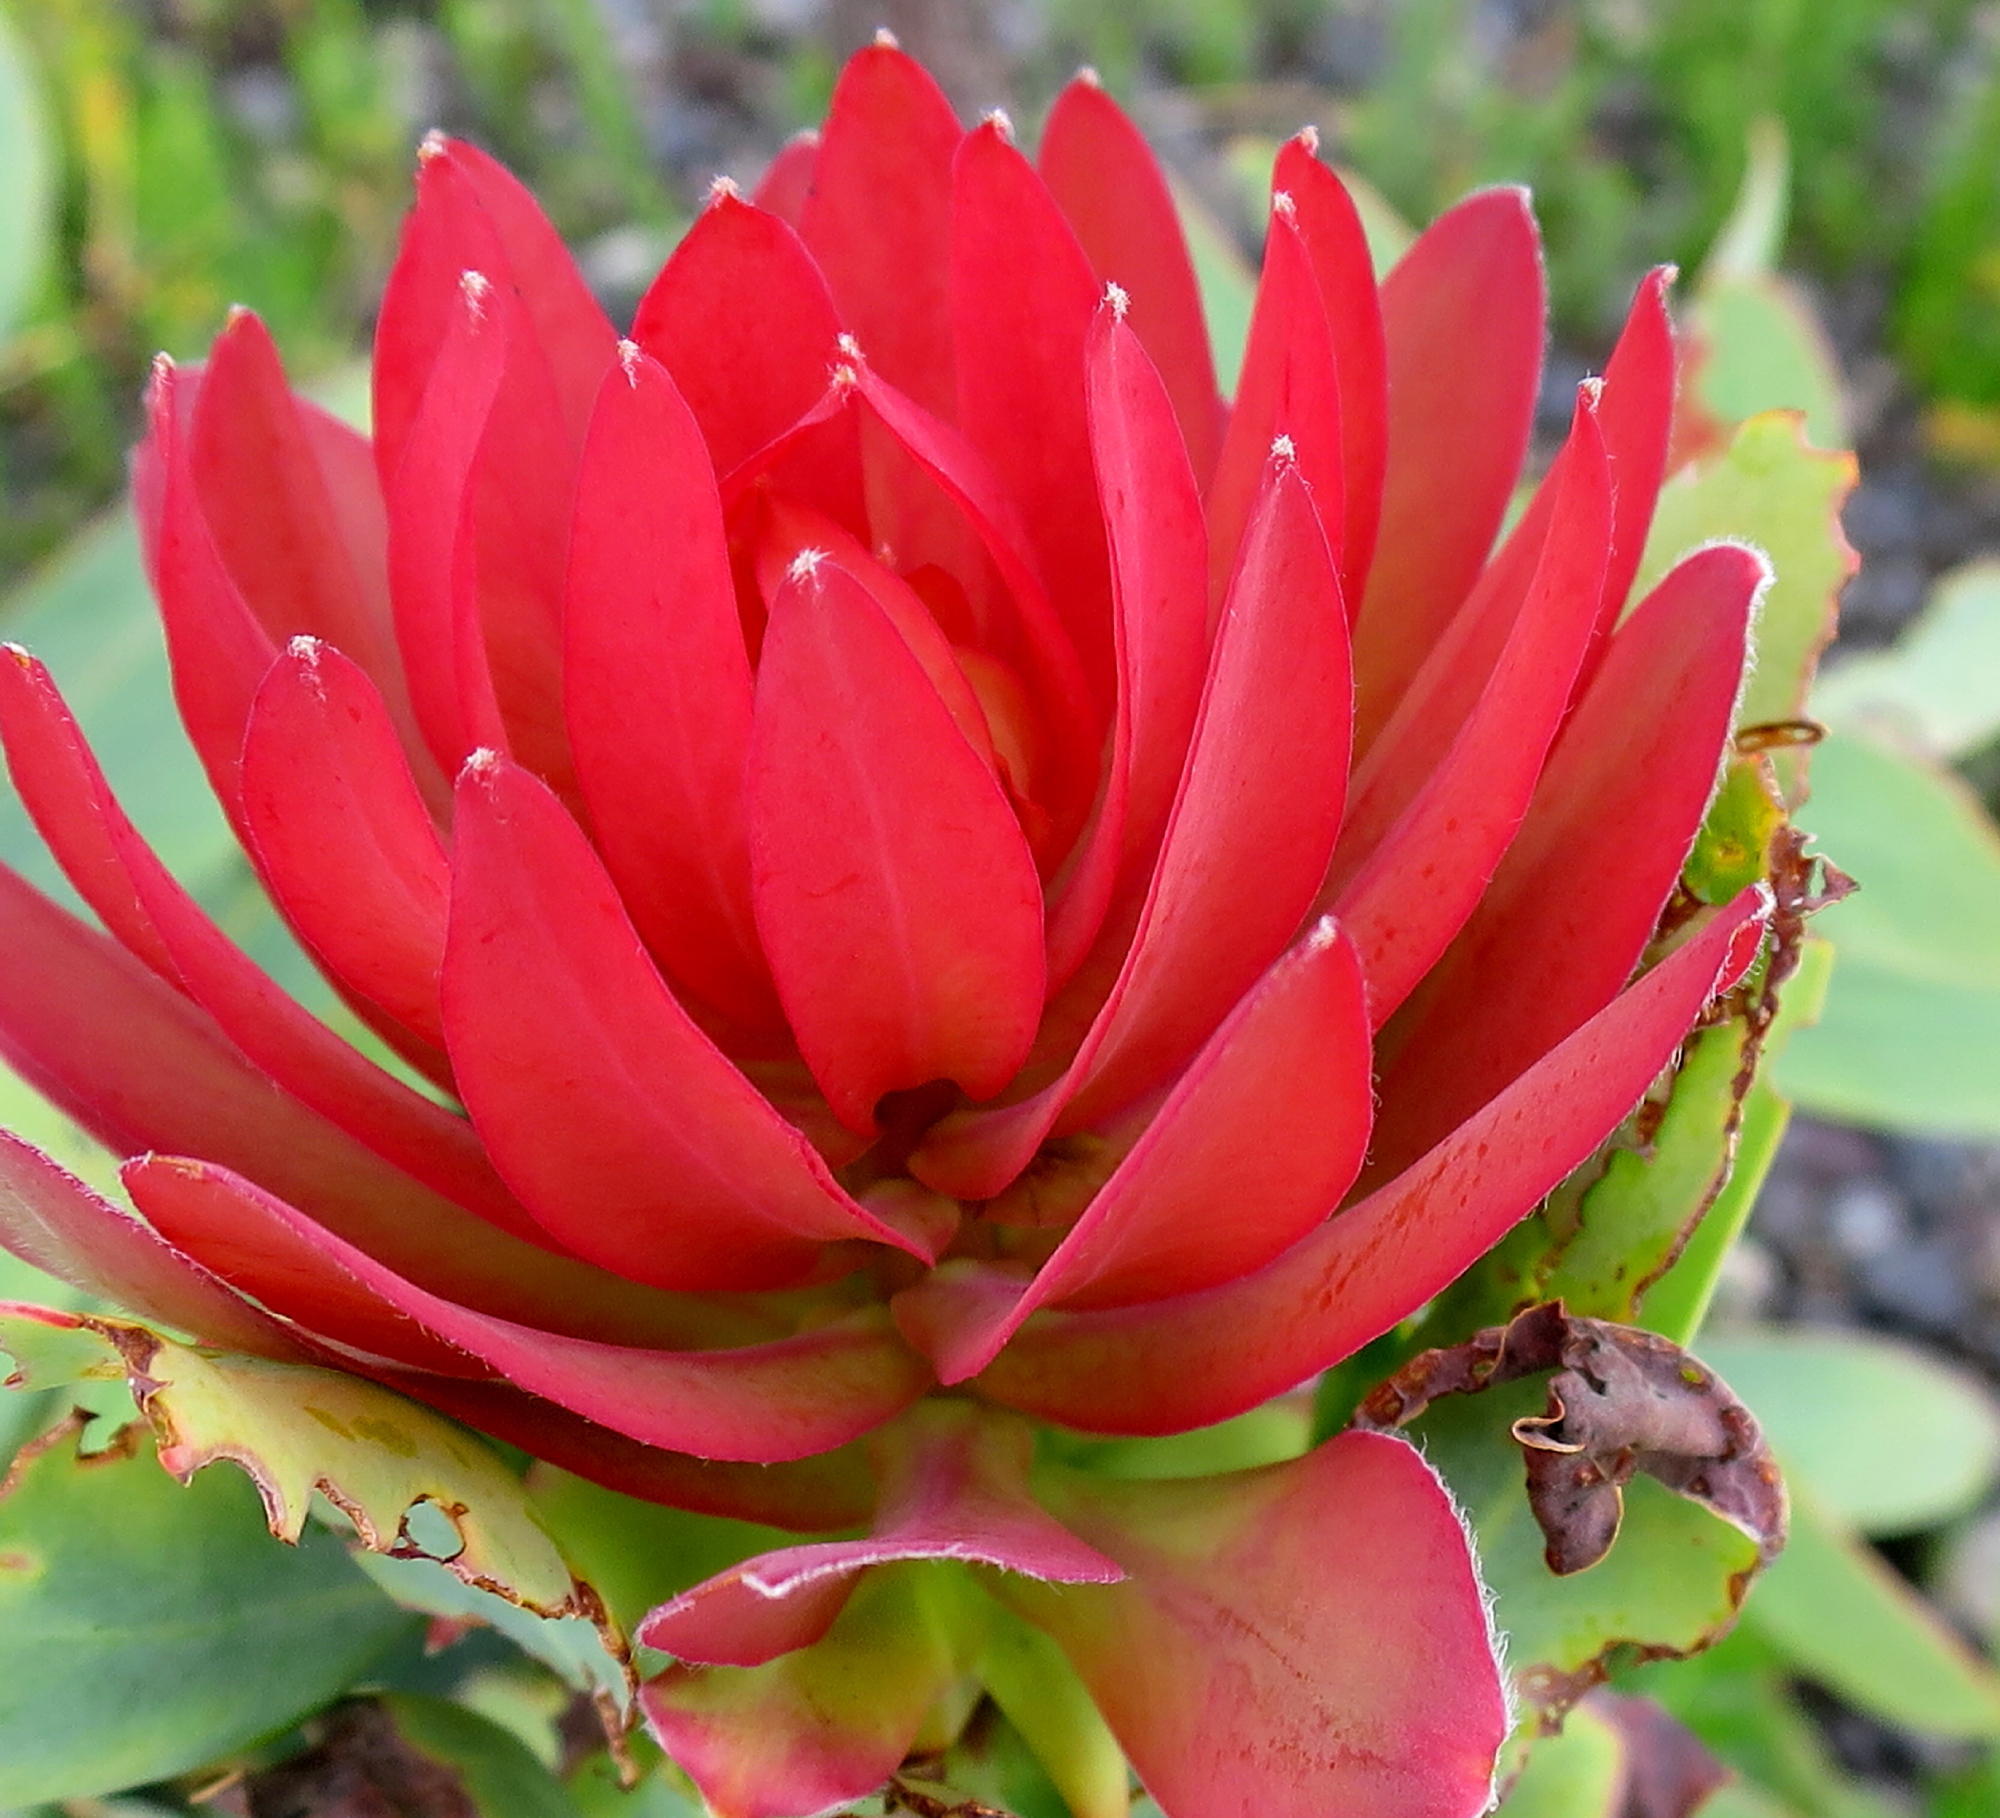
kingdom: Plantae
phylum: Tracheophyta
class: Magnoliopsida
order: Proteales
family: Proteaceae
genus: Protea
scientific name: Protea nitida
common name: Tree protea
